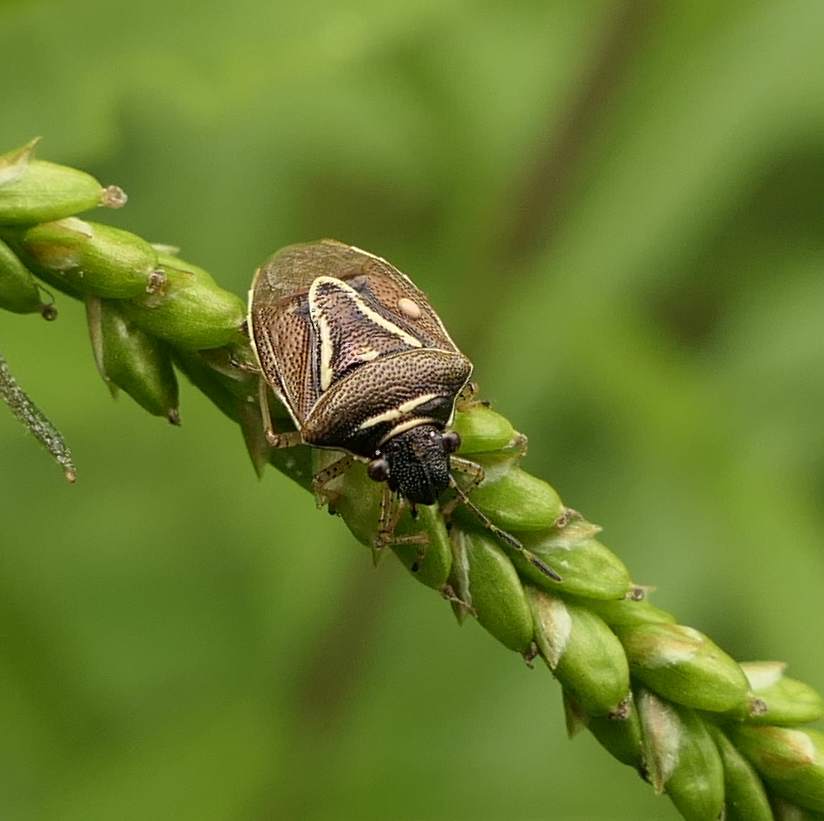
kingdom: Animalia
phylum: Arthropoda
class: Insecta
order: Hemiptera
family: Pentatomidae
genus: Mormidea
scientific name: Mormidea lugens
